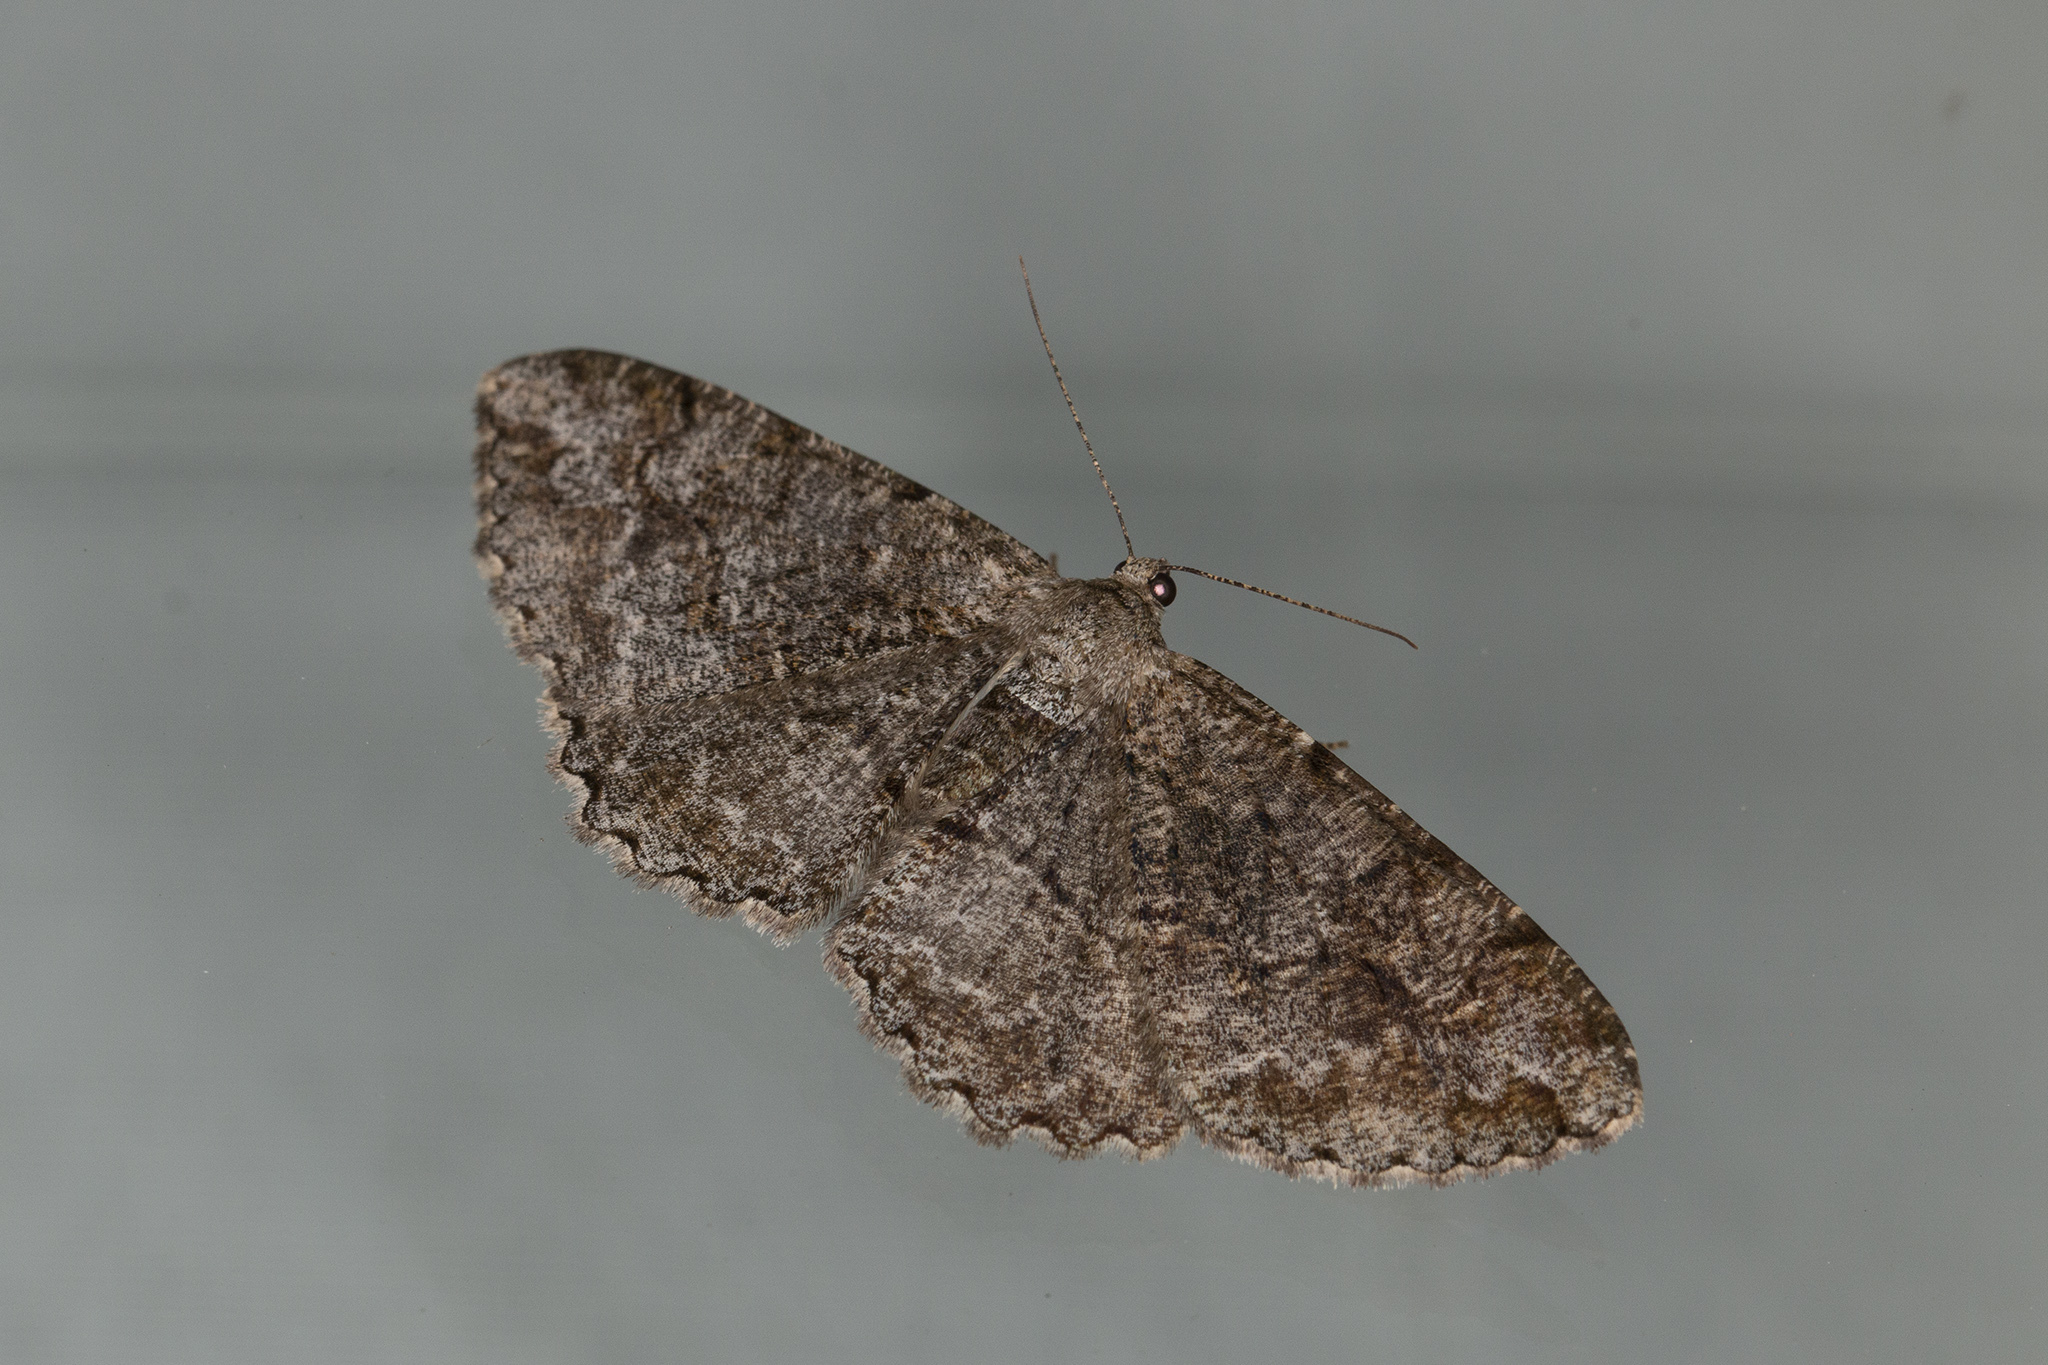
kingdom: Animalia
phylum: Arthropoda
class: Insecta
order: Lepidoptera
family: Geometridae
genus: Alcis
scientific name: Alcis repandata
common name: Mottled beauty
